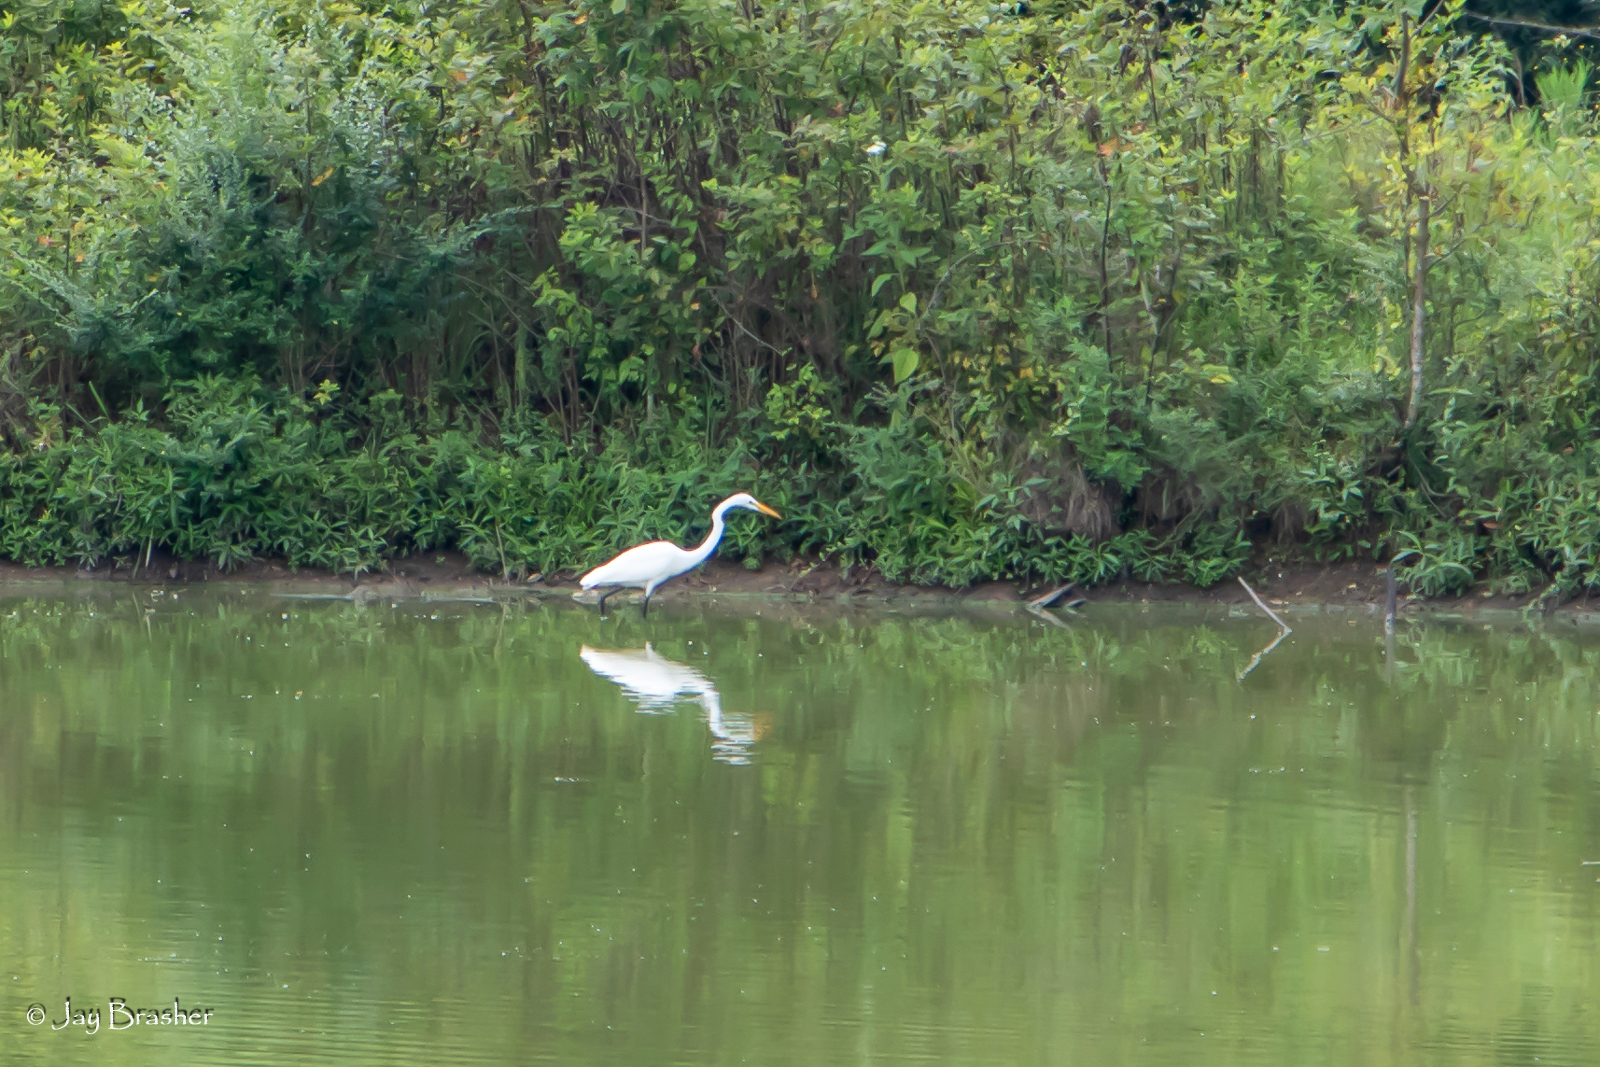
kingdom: Animalia
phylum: Chordata
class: Aves
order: Pelecaniformes
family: Ardeidae
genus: Ardea
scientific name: Ardea alba
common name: Great egret
